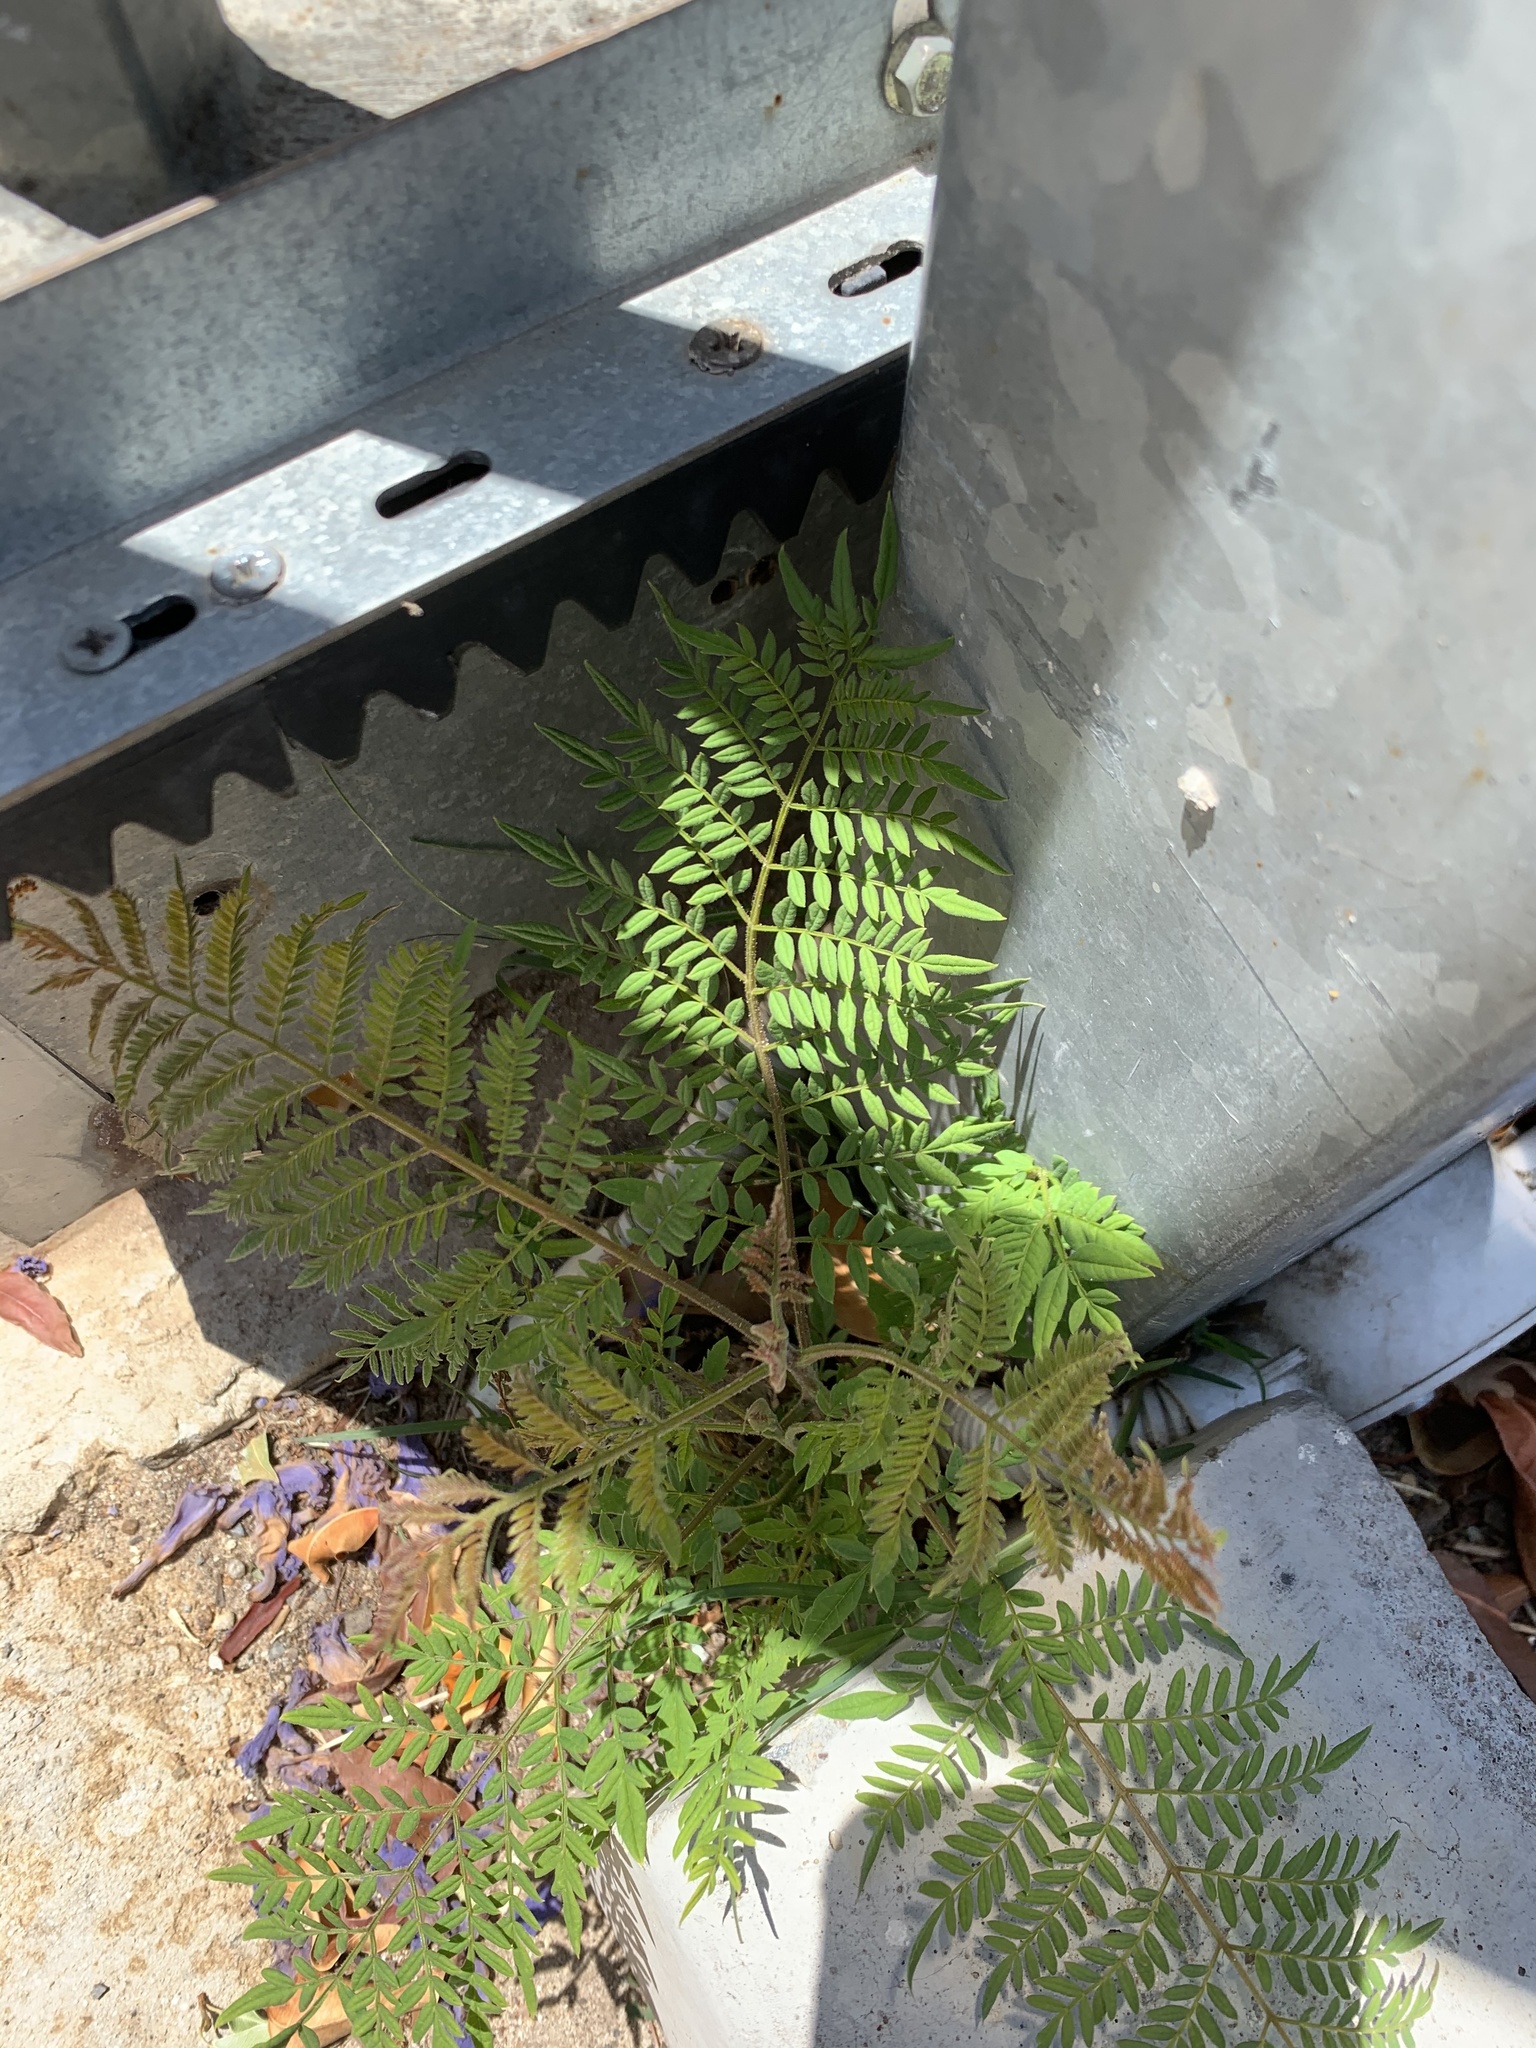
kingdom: Plantae
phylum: Tracheophyta
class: Magnoliopsida
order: Lamiales
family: Bignoniaceae
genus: Jacaranda
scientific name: Jacaranda mimosifolia
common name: Black poui
